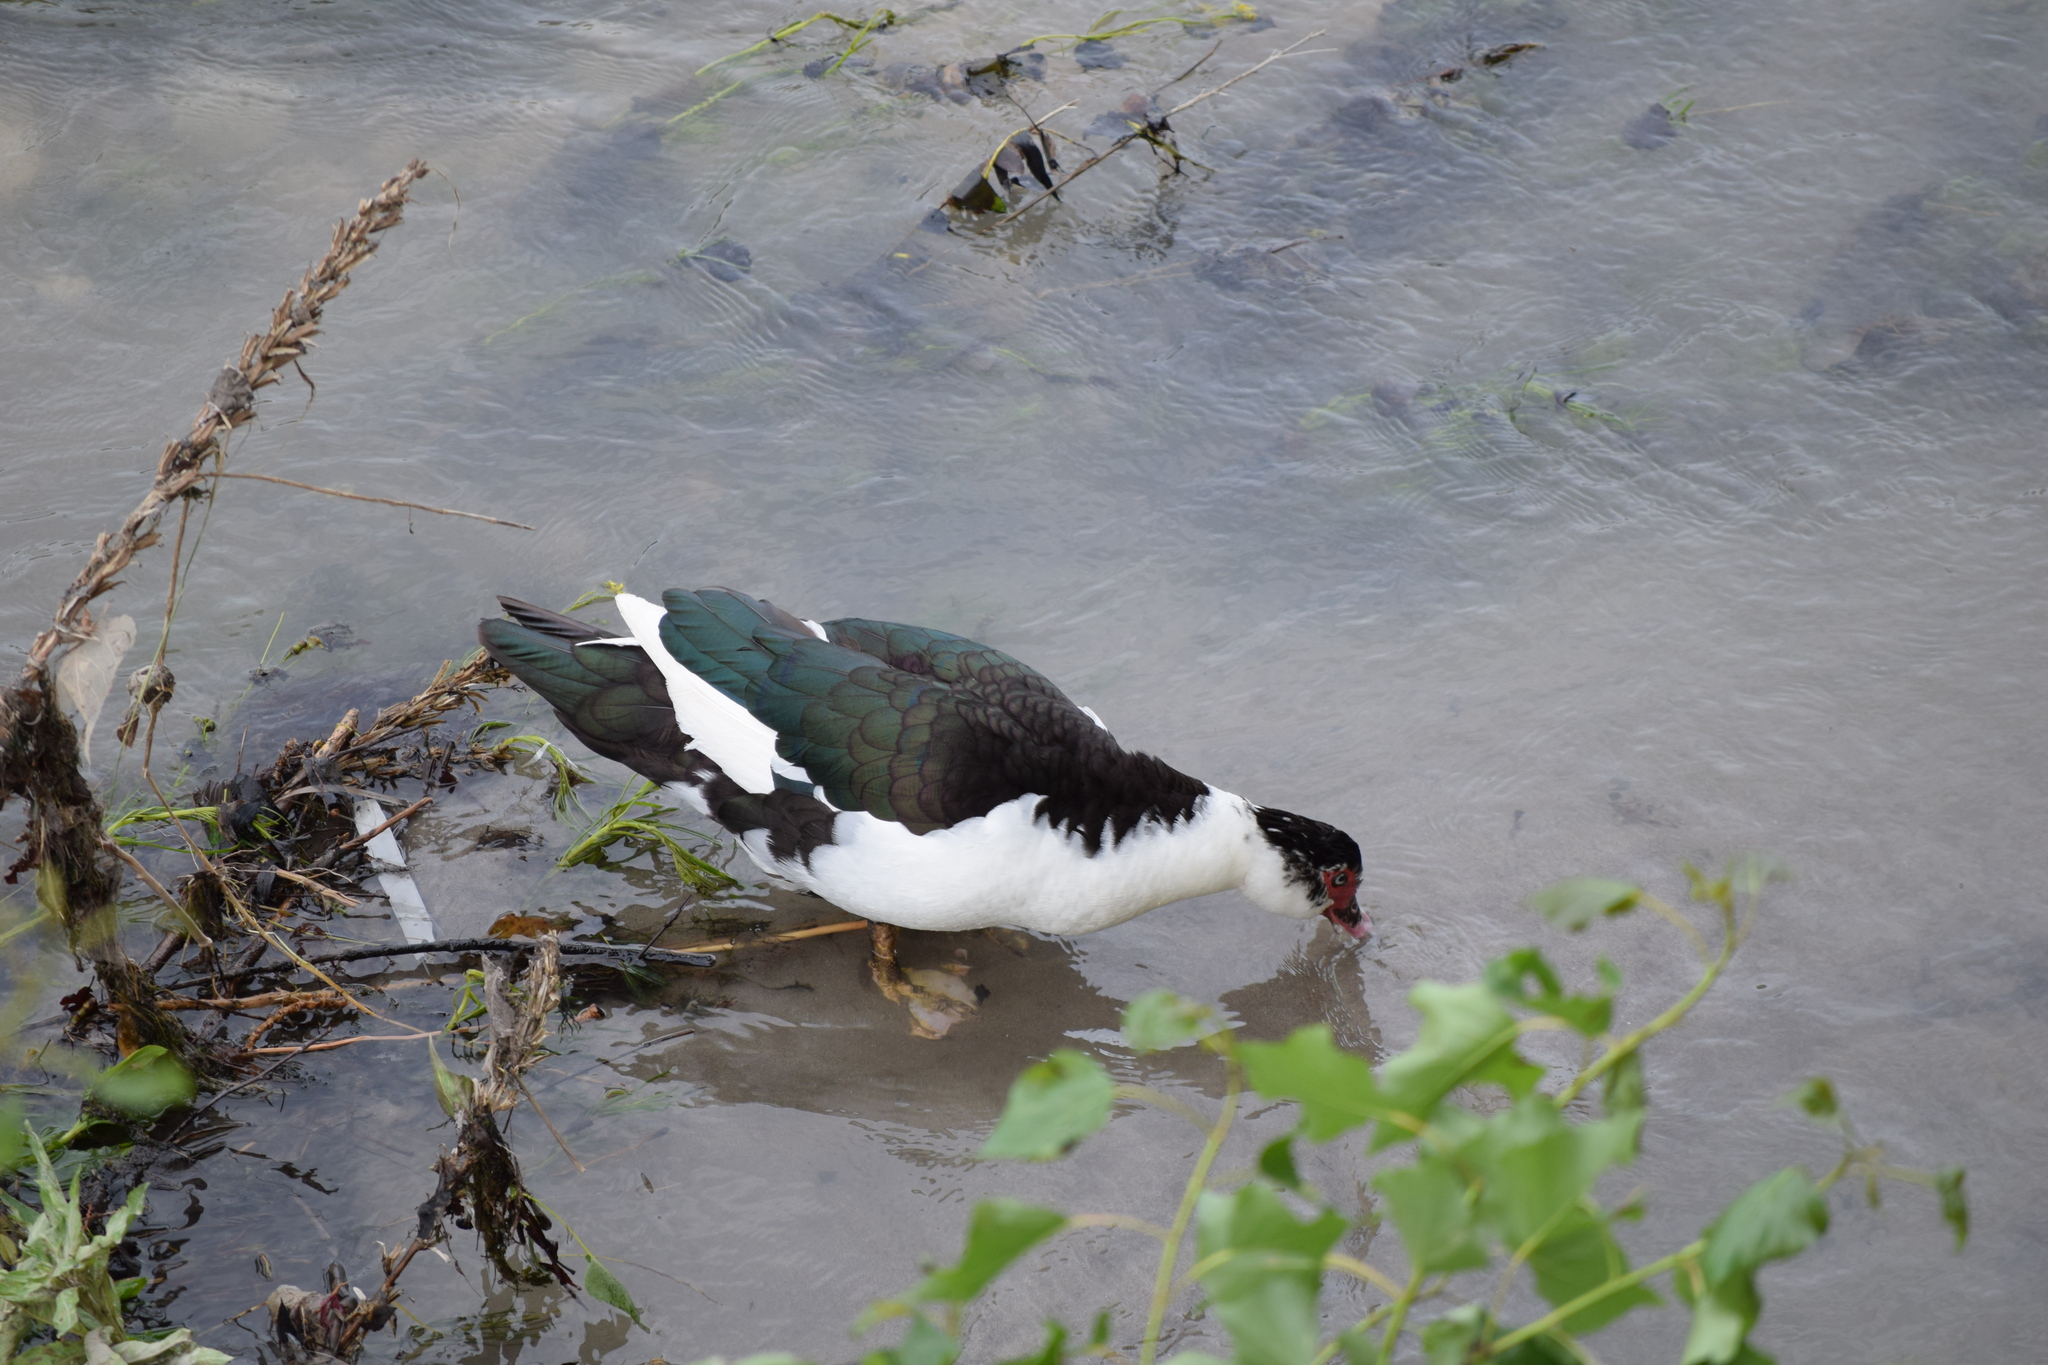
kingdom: Animalia
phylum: Chordata
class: Aves
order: Anseriformes
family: Anatidae
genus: Cairina
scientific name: Cairina moschata
